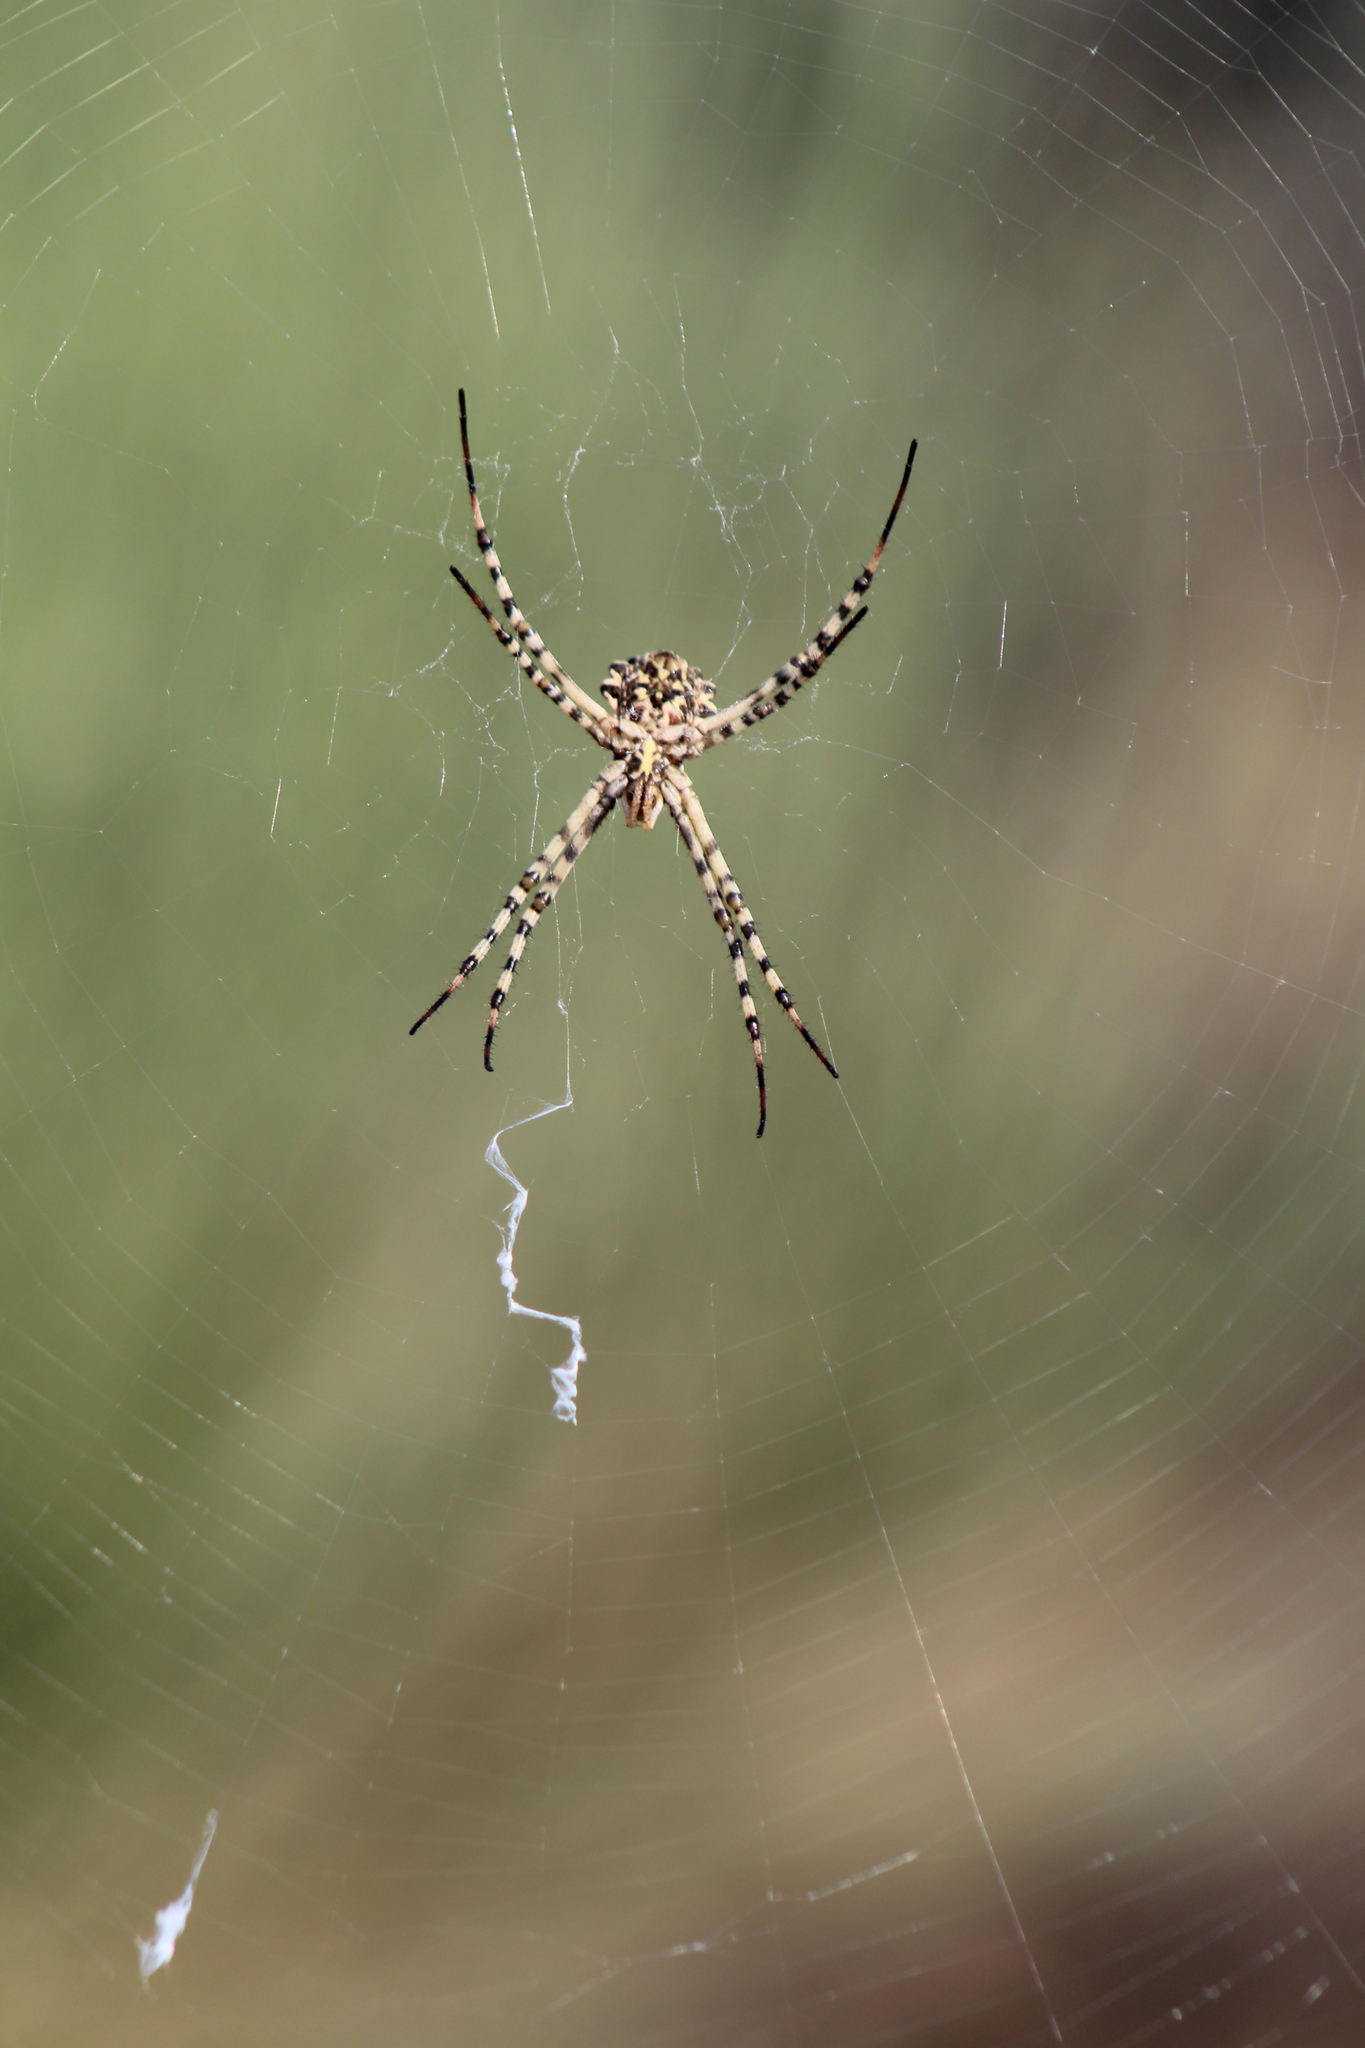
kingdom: Animalia
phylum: Arthropoda
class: Arachnida
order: Araneae
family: Araneidae
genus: Argiope
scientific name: Argiope lobata
